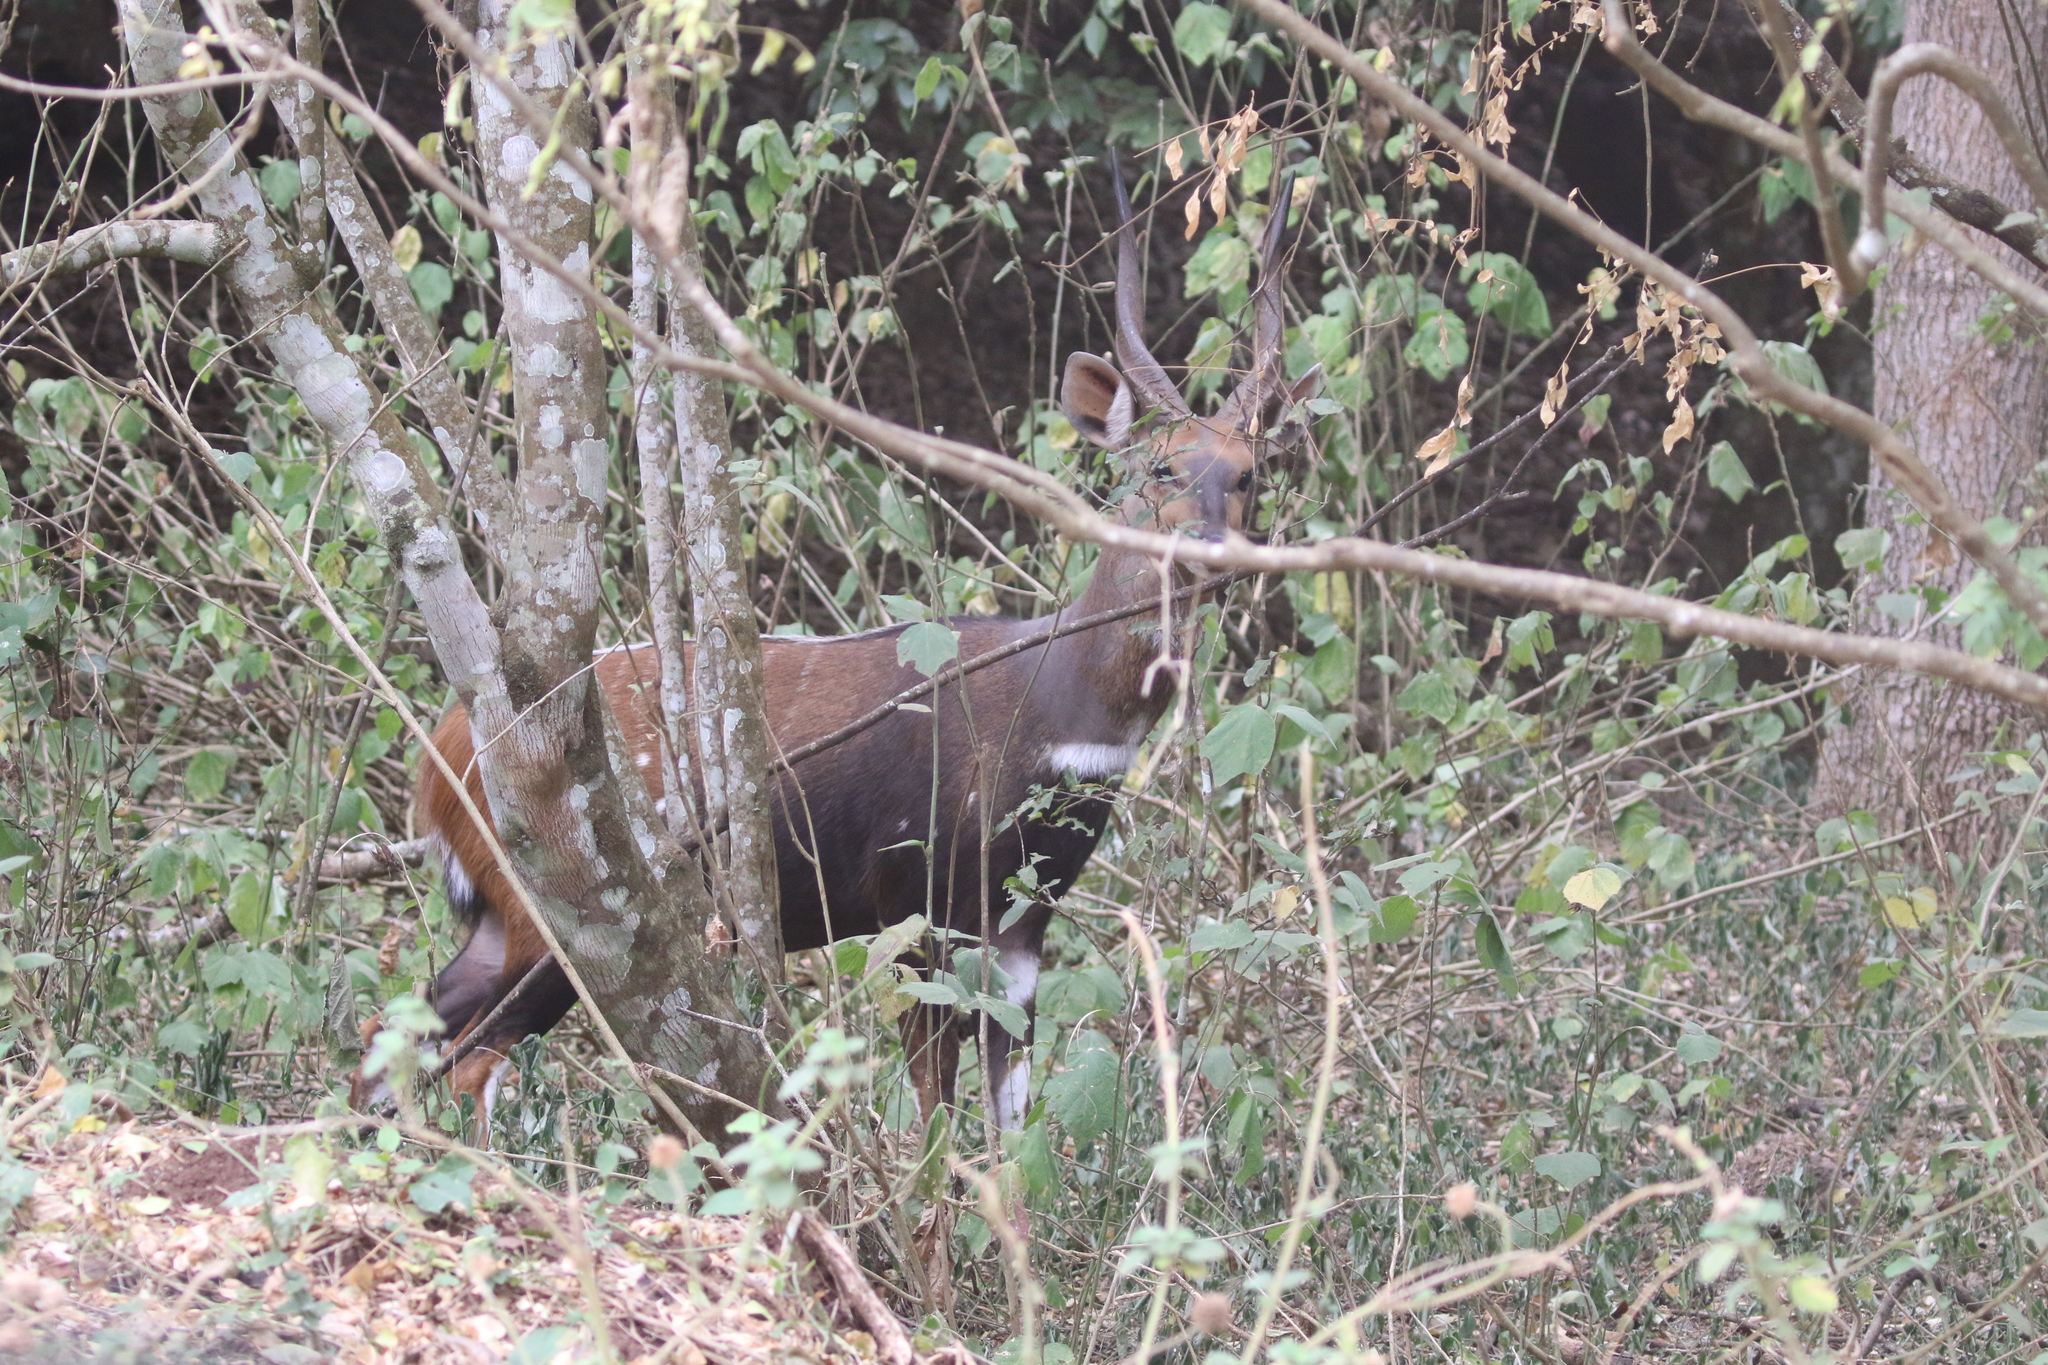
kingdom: Animalia
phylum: Chordata
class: Mammalia
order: Artiodactyla
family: Bovidae
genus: Tragelaphus
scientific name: Tragelaphus scriptus
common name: Bushbuck
